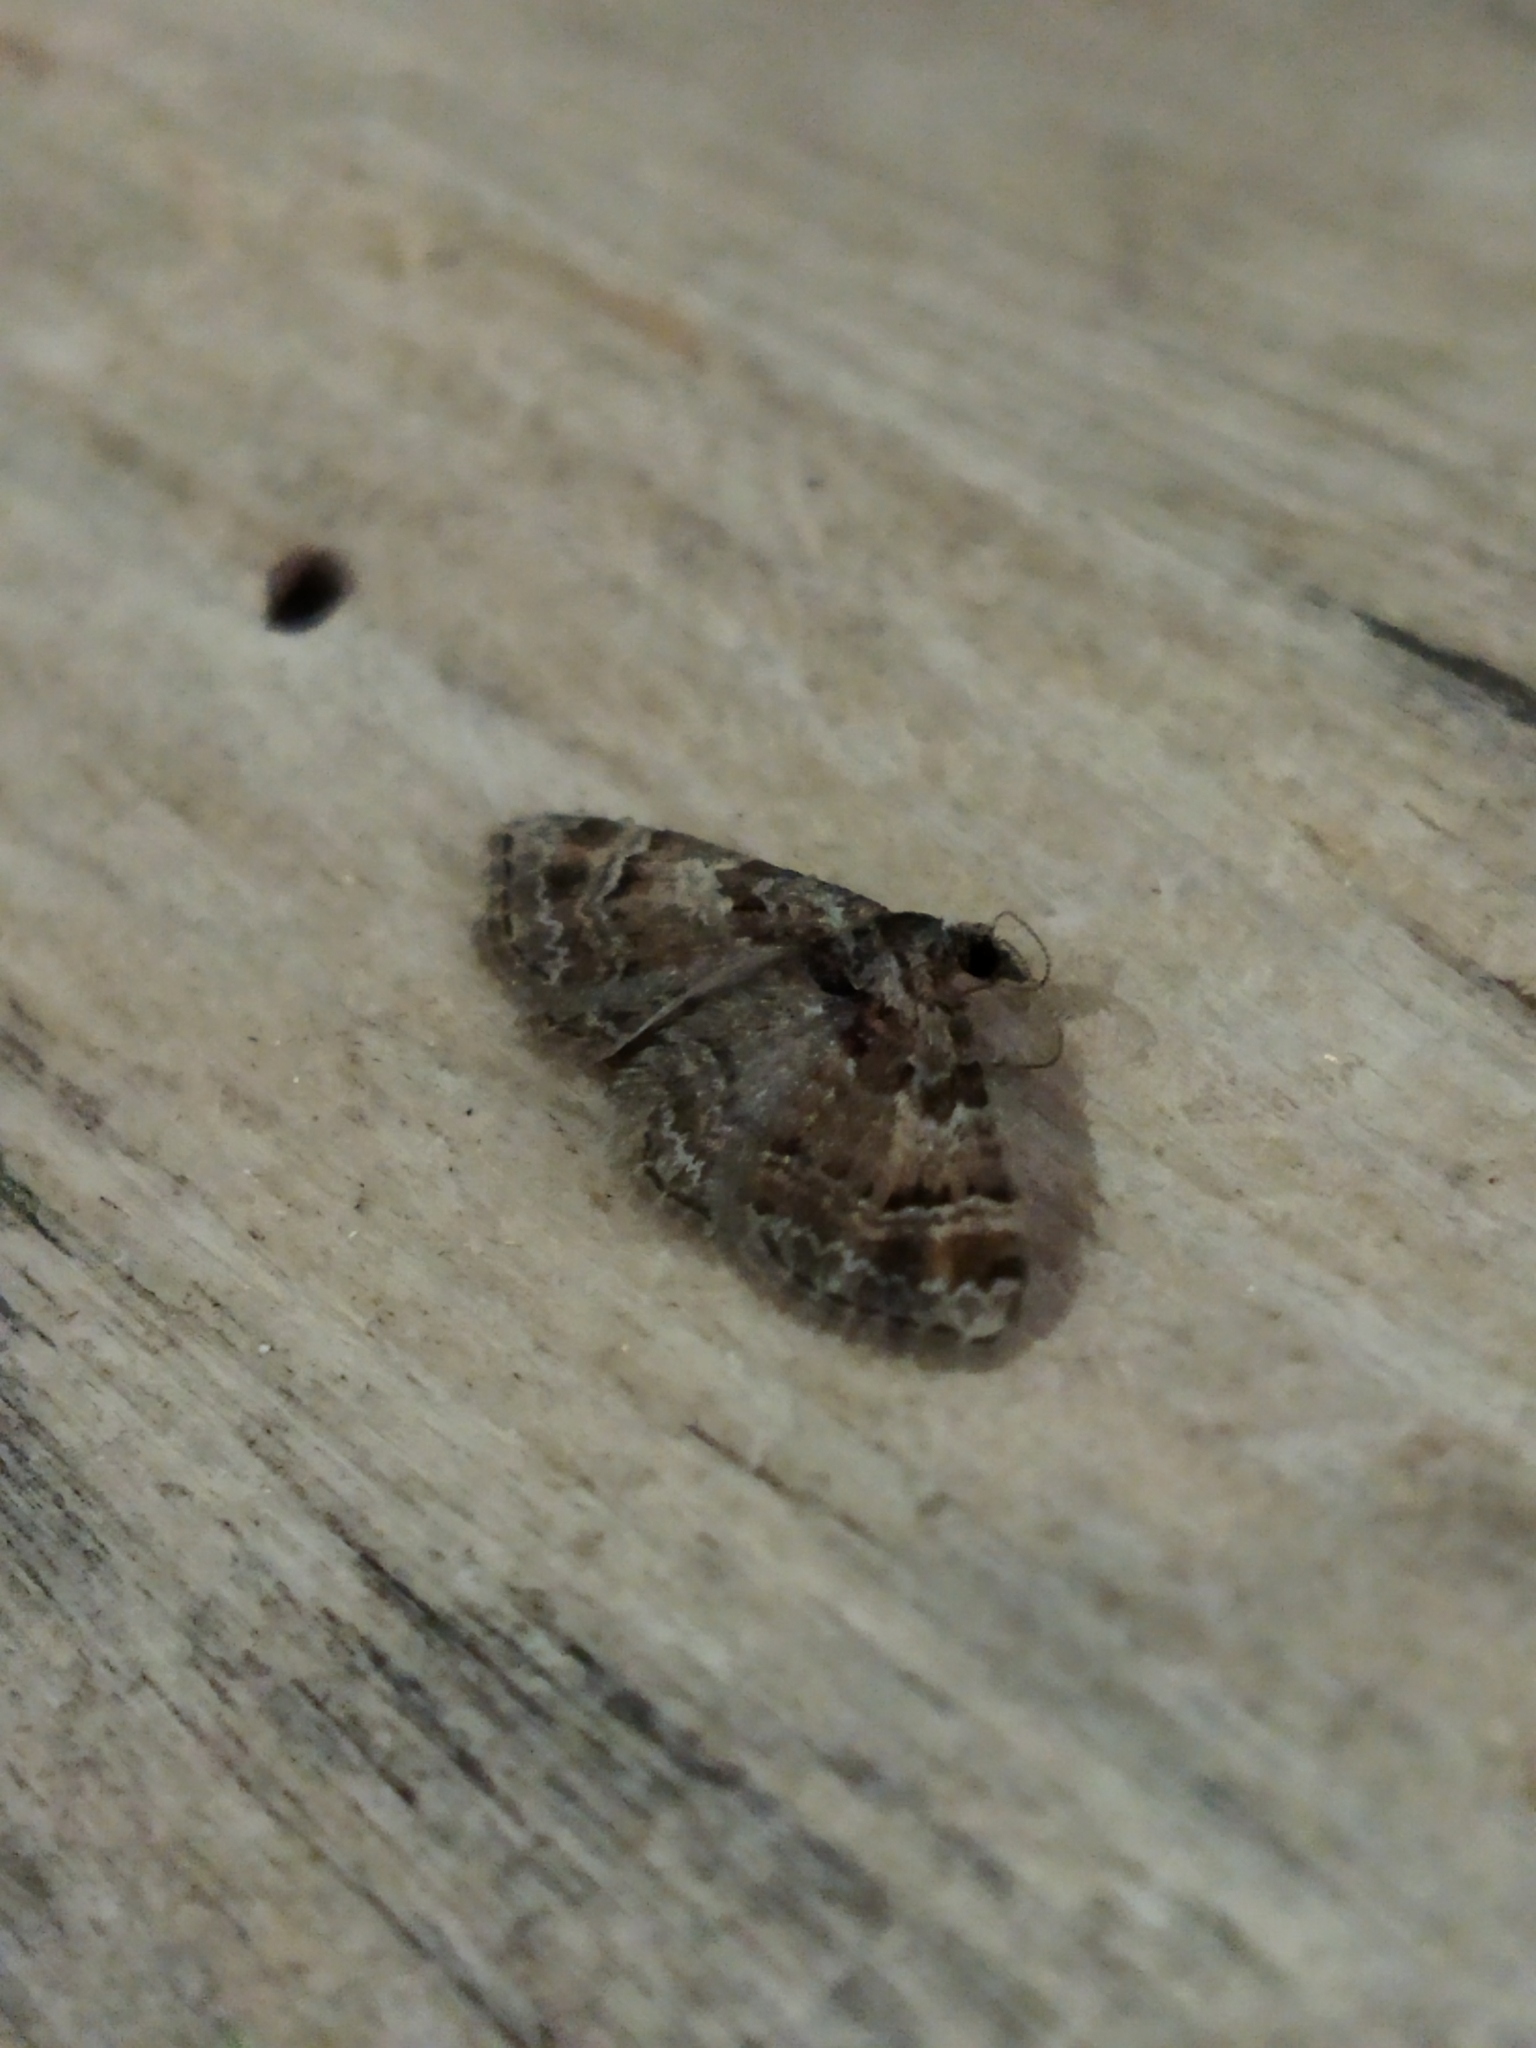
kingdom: Animalia
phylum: Arthropoda
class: Insecta
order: Lepidoptera
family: Geometridae
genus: Gymnoscelis
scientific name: Gymnoscelis rufifasciata
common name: Double-striped pug
